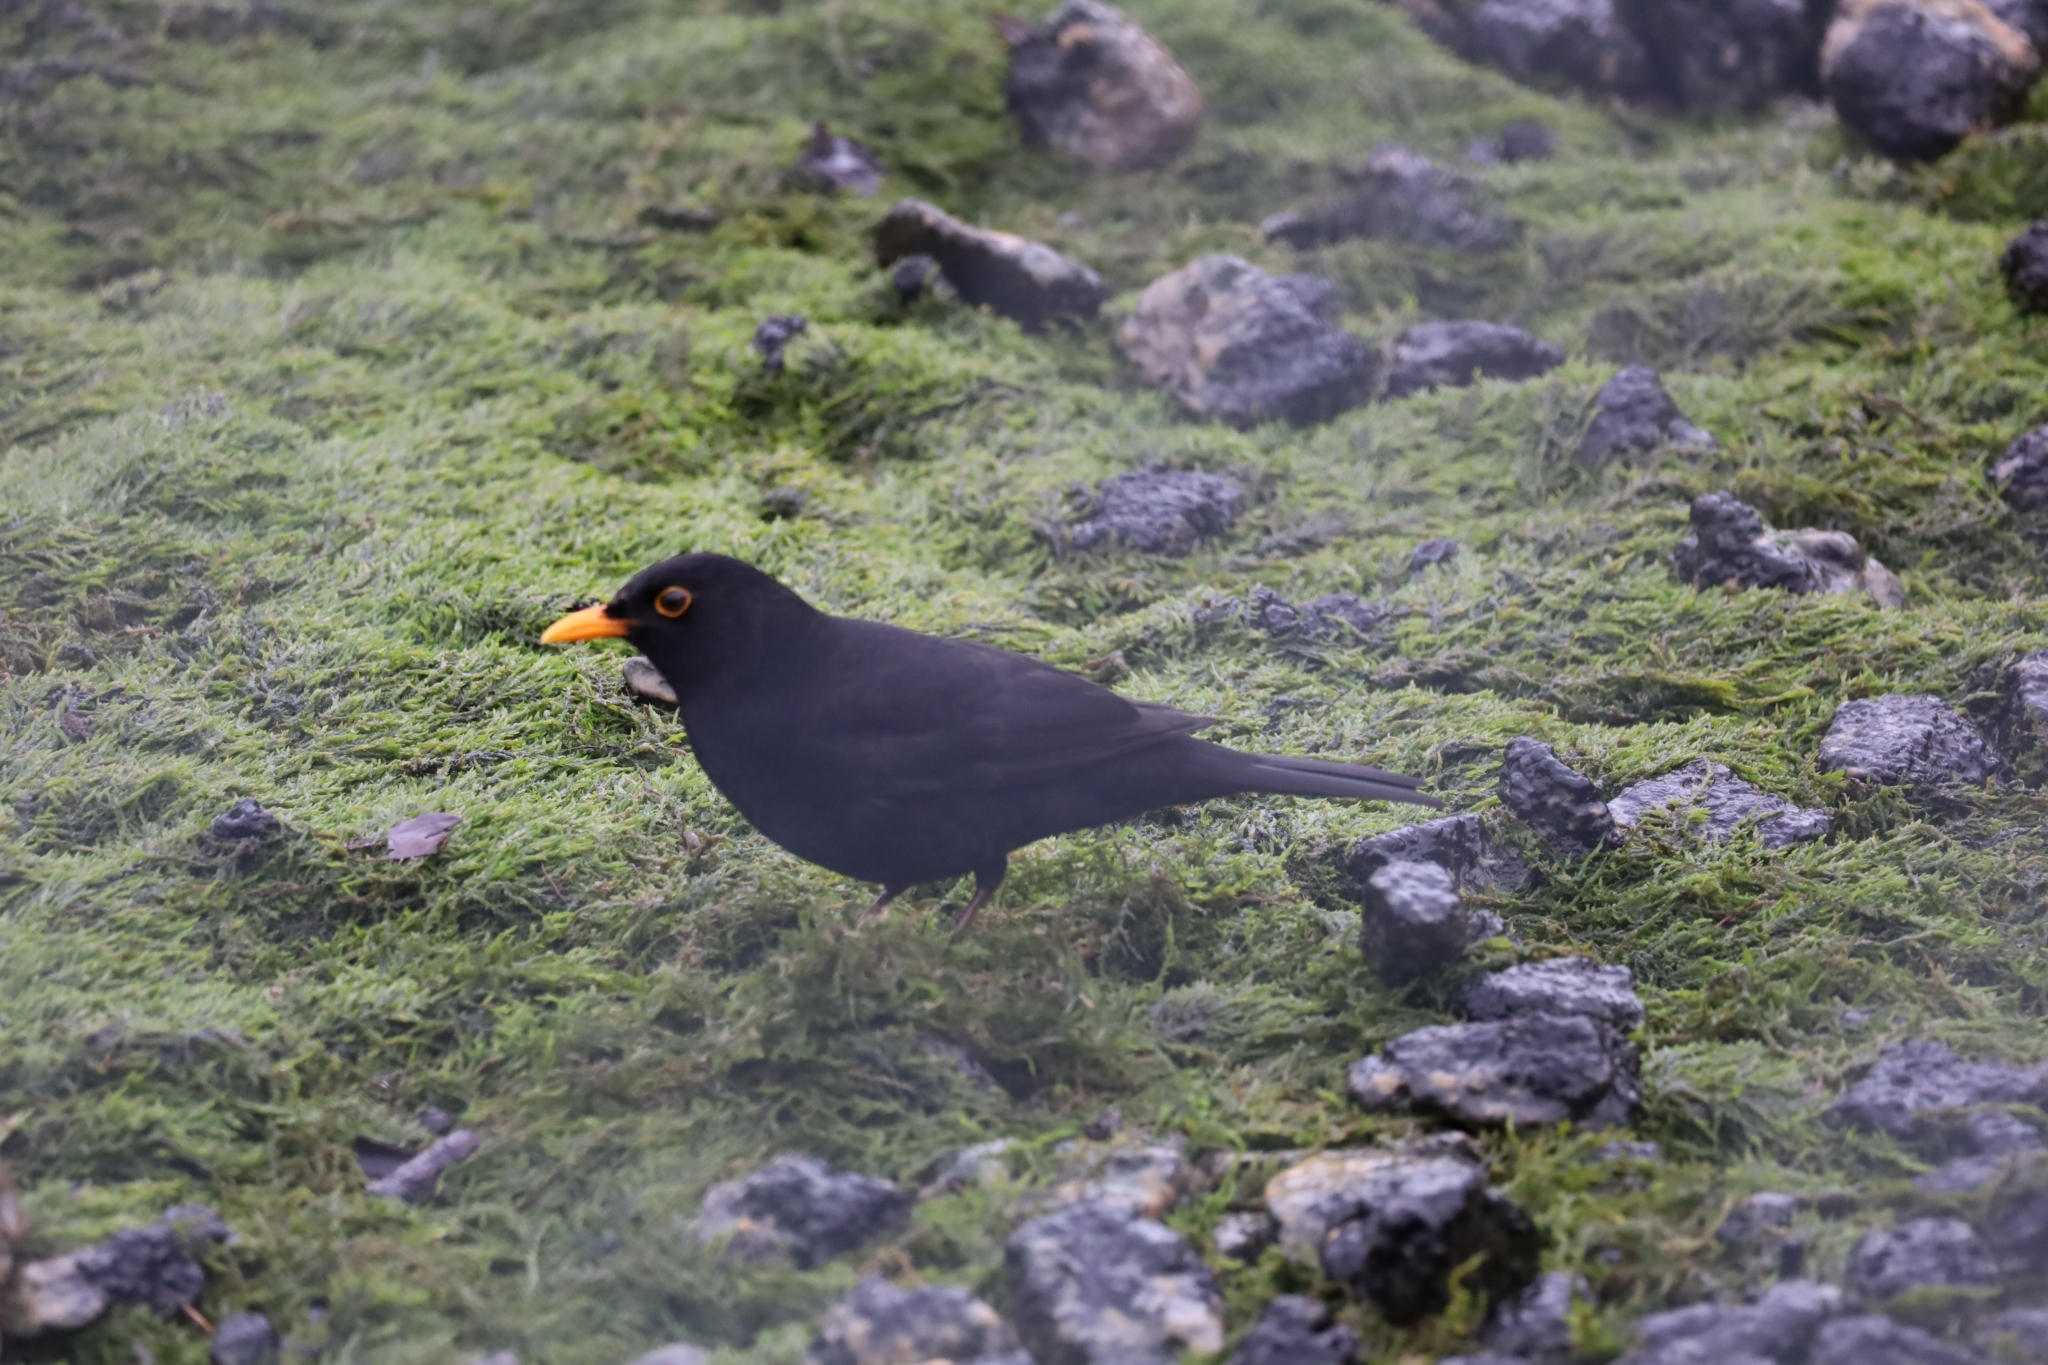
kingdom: Animalia
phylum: Chordata
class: Aves
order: Passeriformes
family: Turdidae
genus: Turdus
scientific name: Turdus merula
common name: Common blackbird
